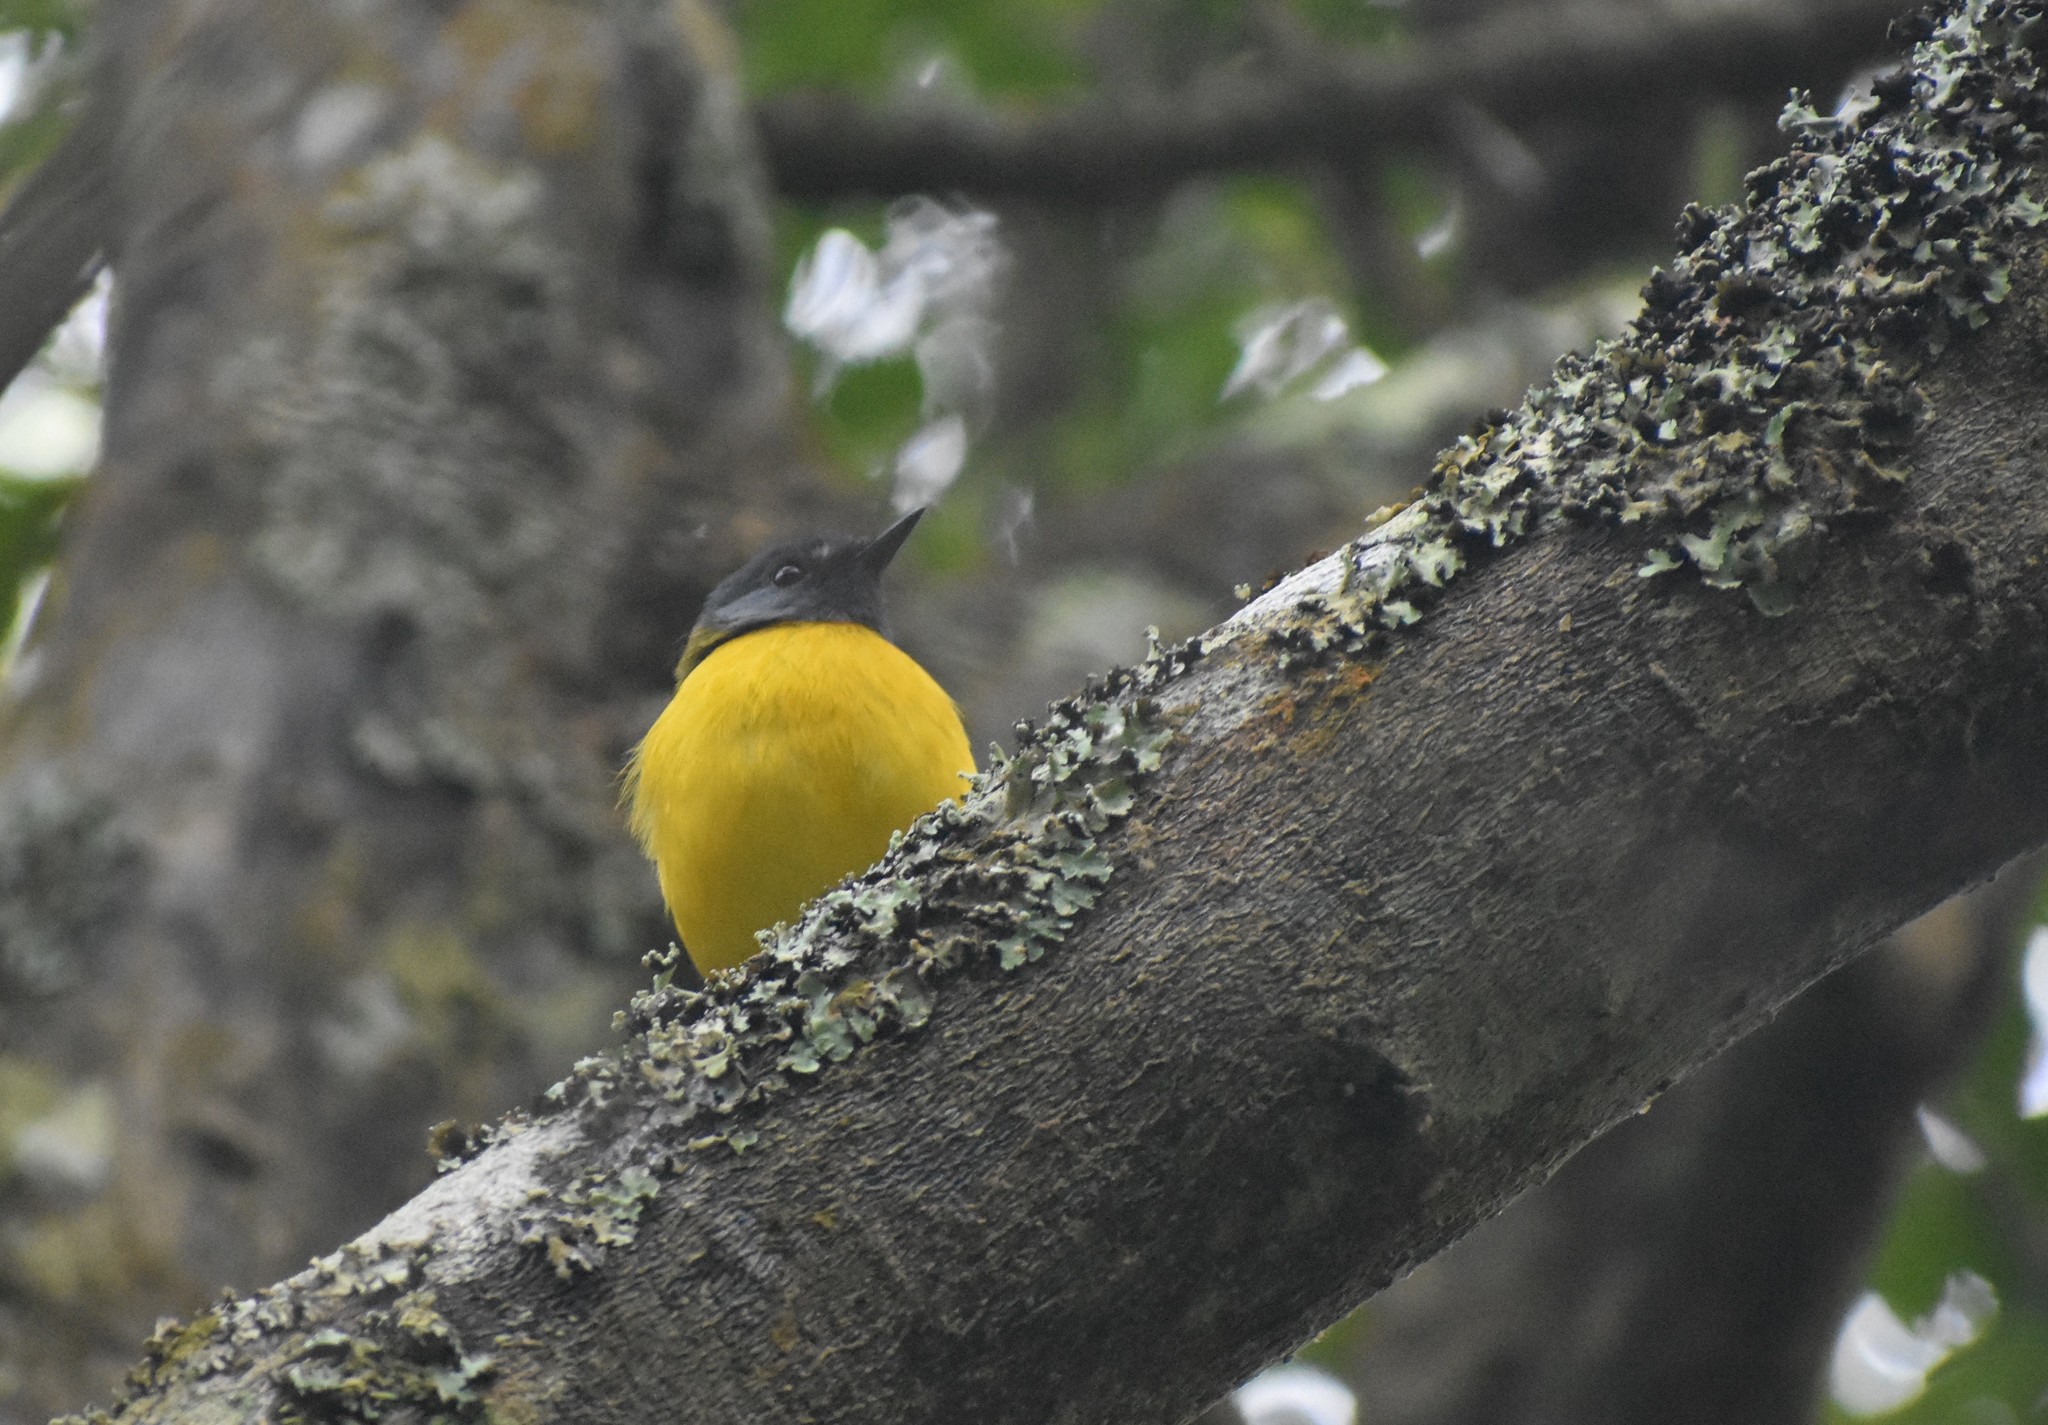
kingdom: Animalia
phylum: Chordata
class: Aves
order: Passeriformes
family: Muscicapidae
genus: Pogonocichla
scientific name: Pogonocichla stellata
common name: White-starred robin
